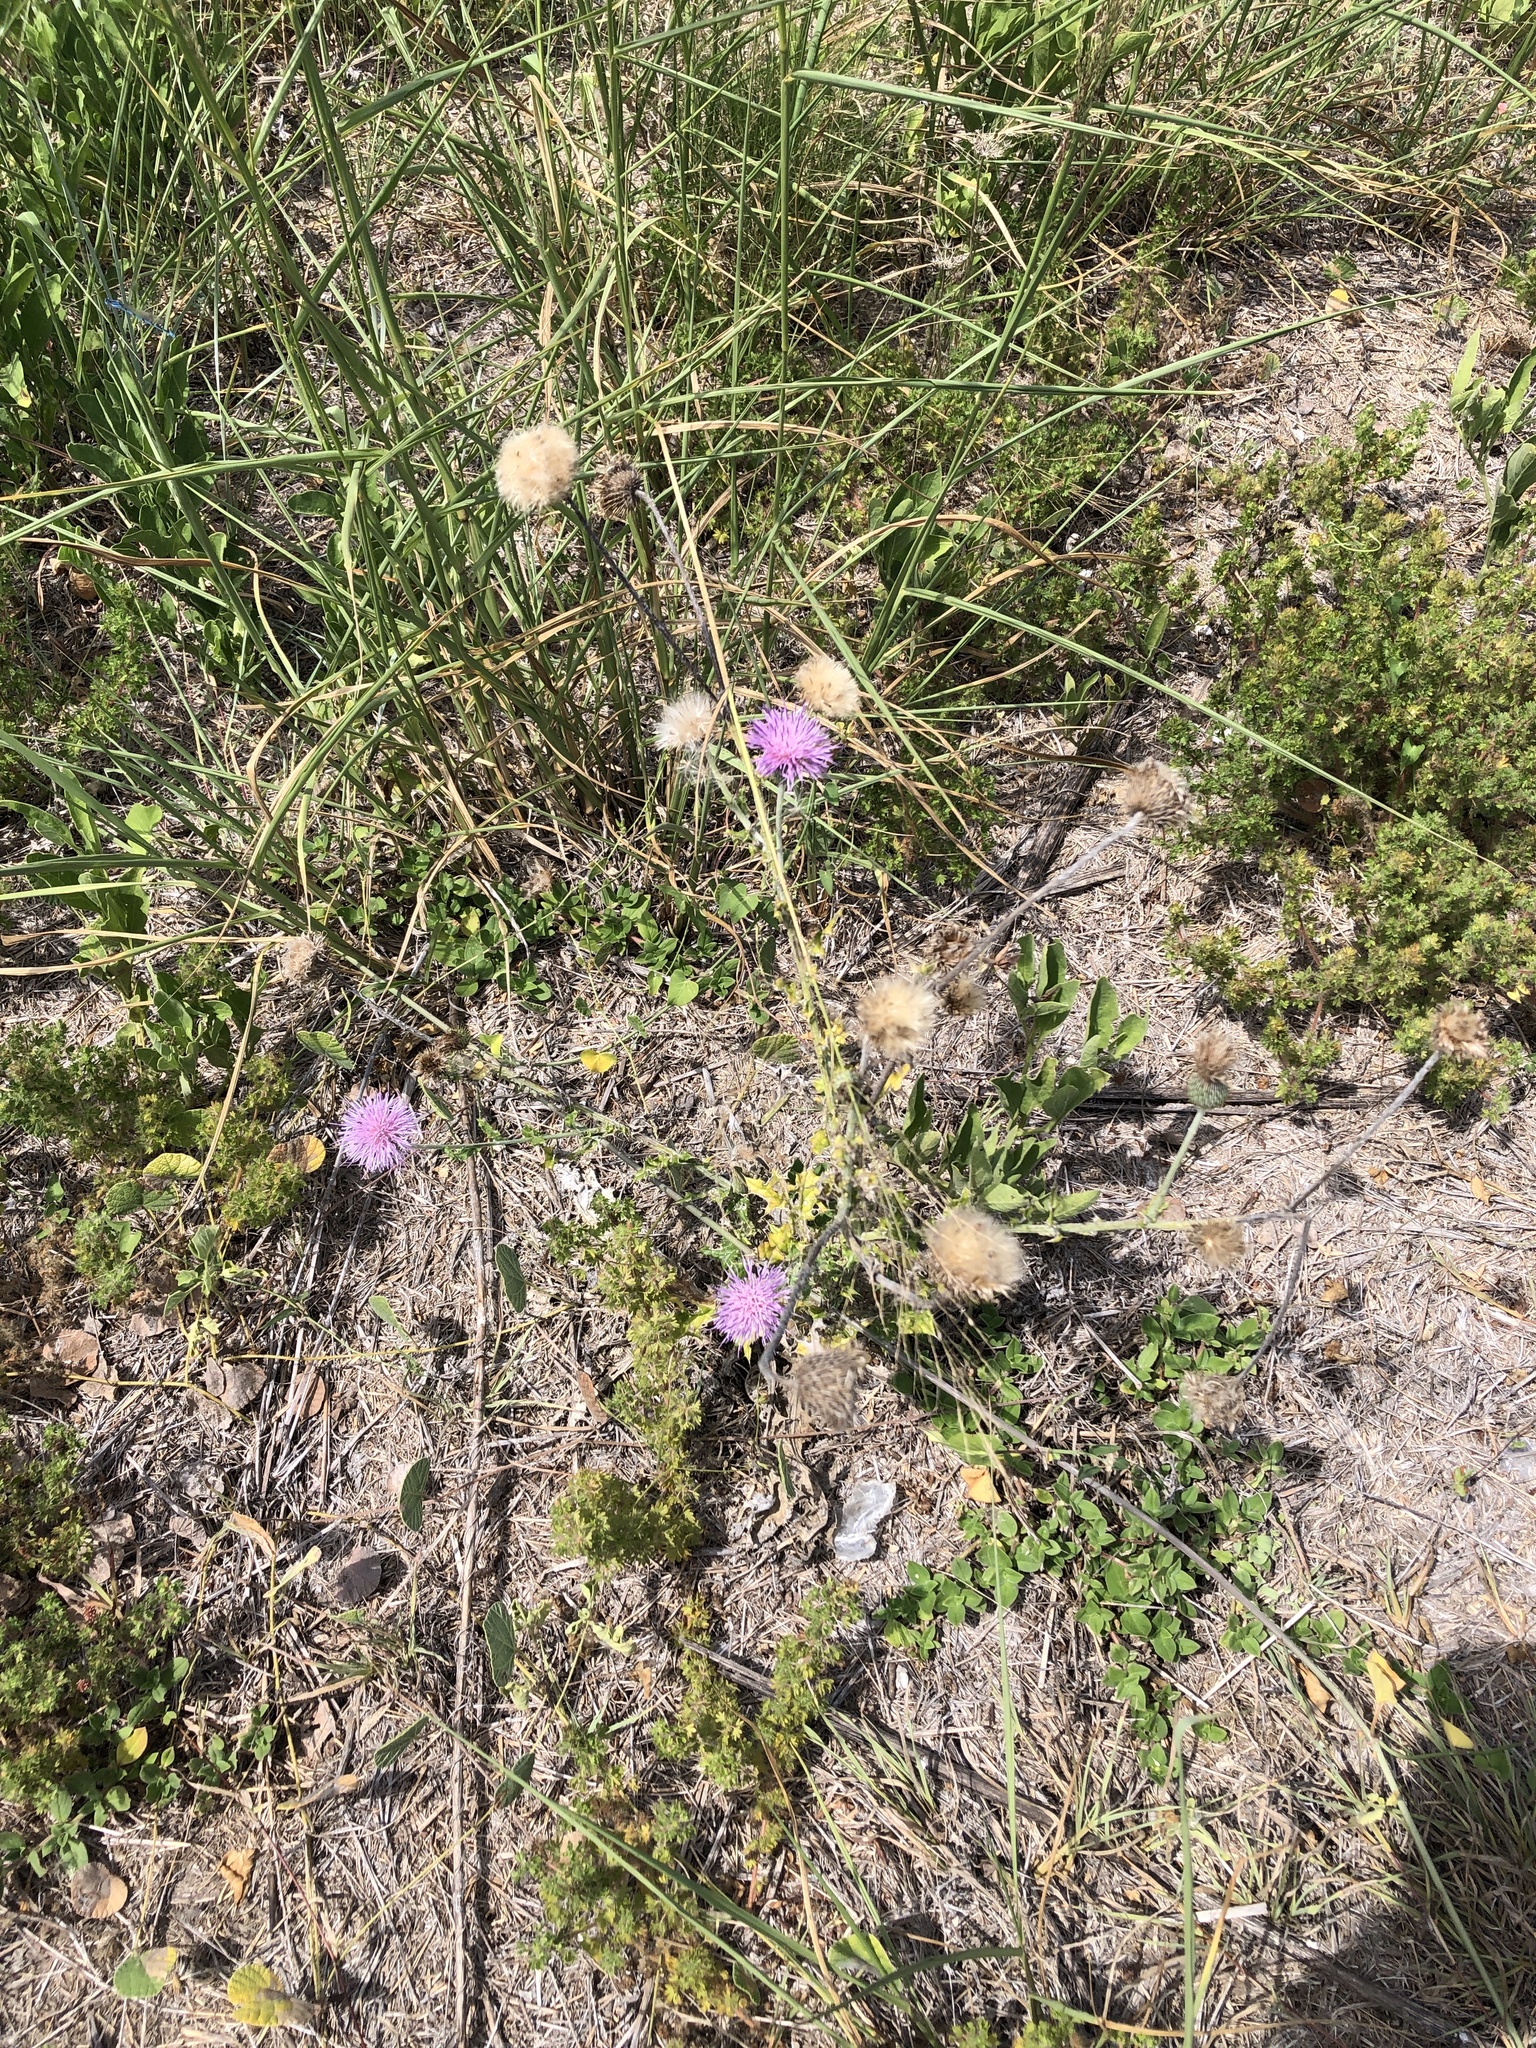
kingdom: Plantae
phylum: Tracheophyta
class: Magnoliopsida
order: Asterales
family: Asteraceae
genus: Cirsium
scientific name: Cirsium texanum
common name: Texas purple thistle
